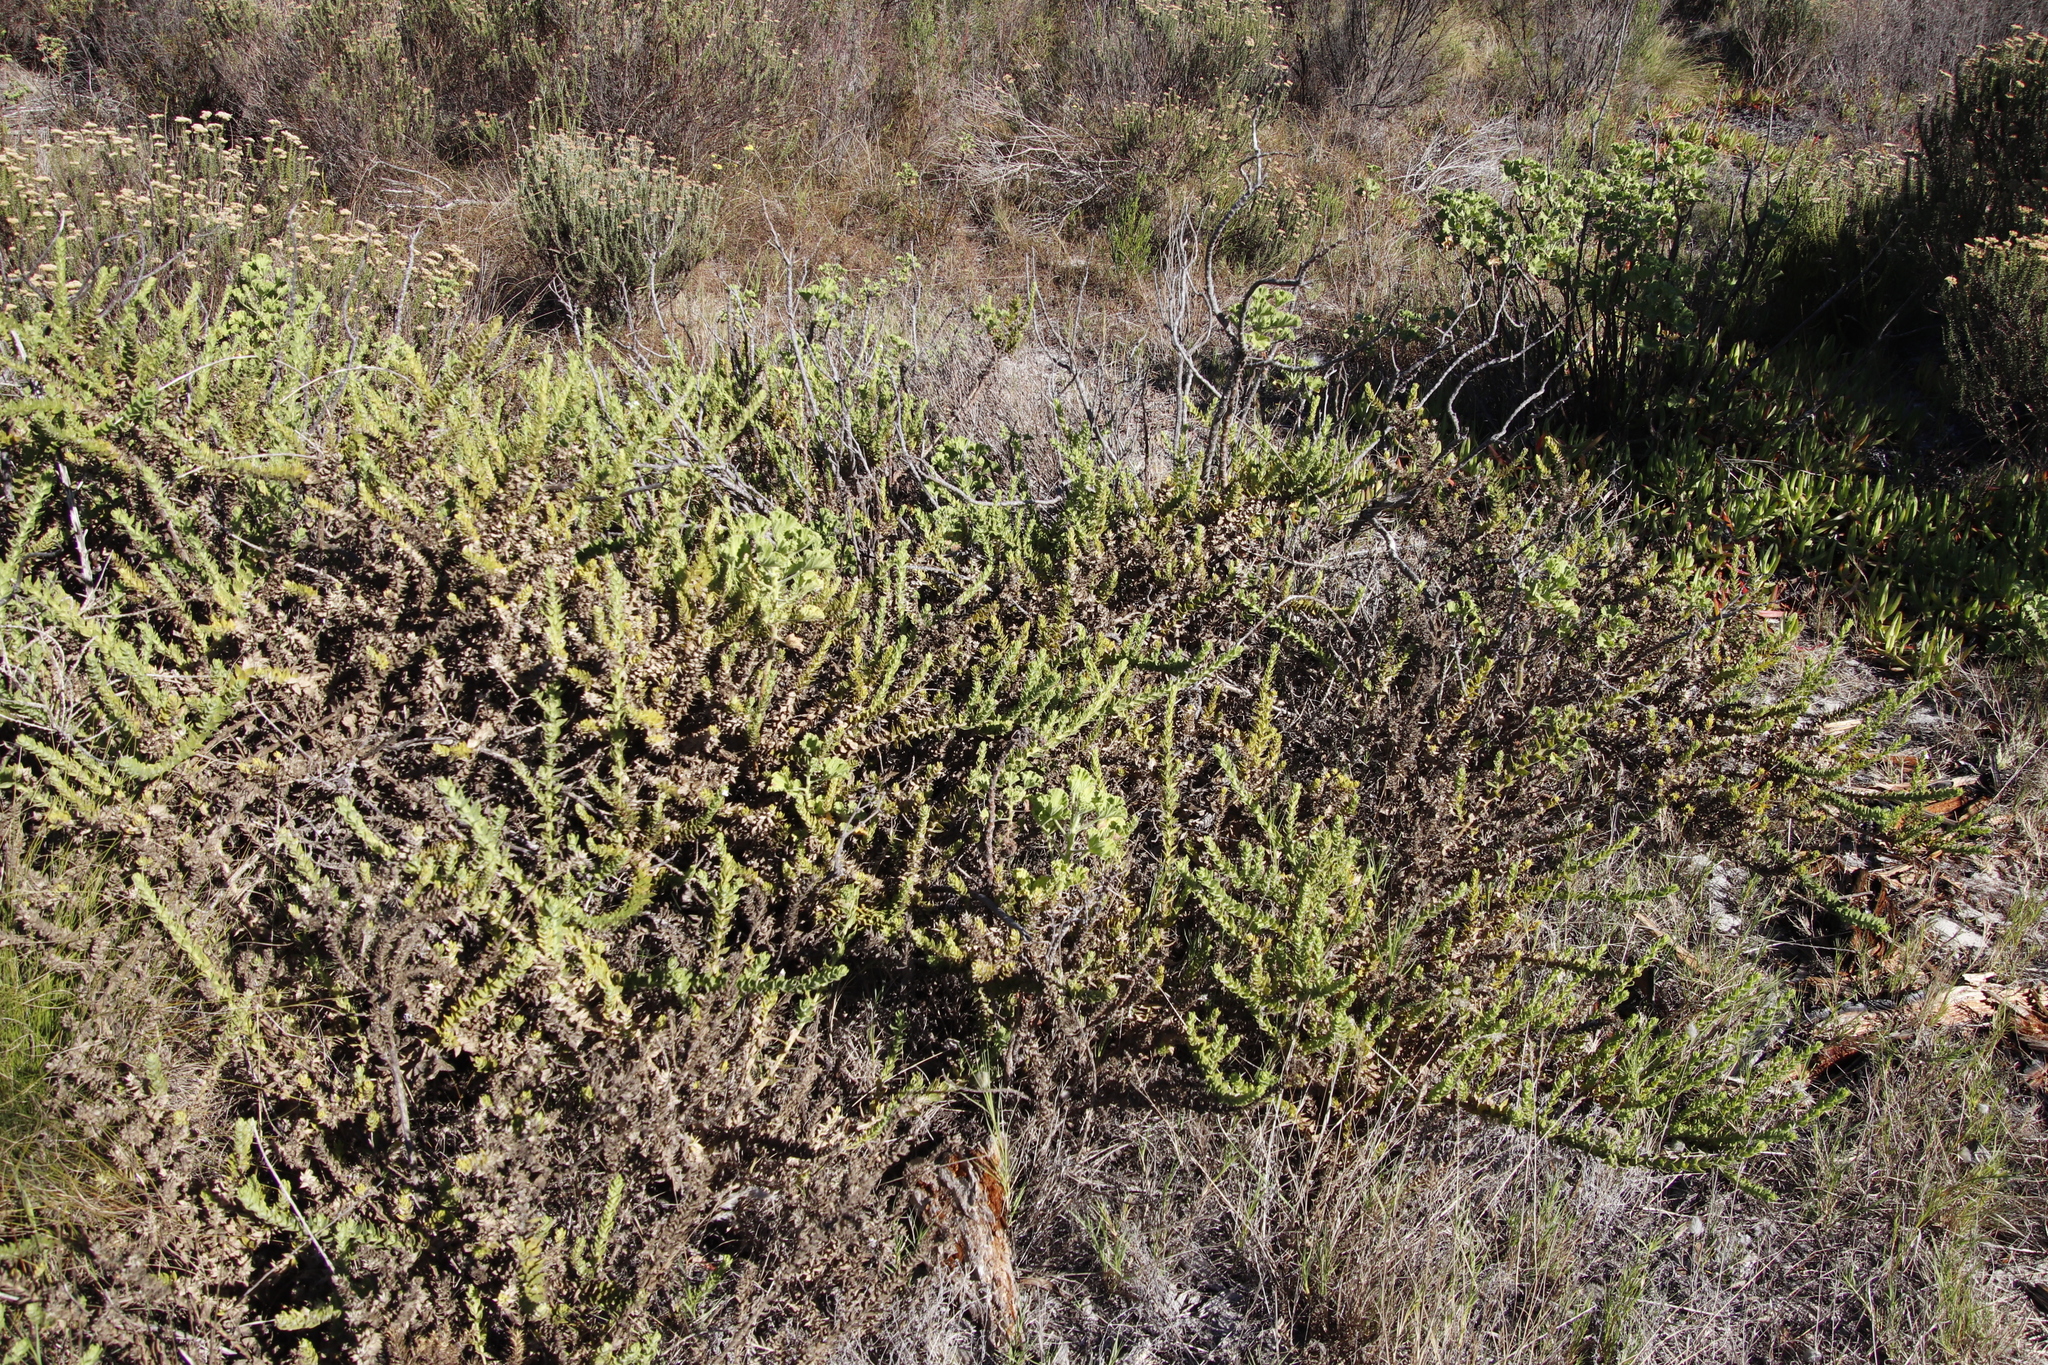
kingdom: Plantae
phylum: Tracheophyta
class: Magnoliopsida
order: Lamiales
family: Scrophulariaceae
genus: Oftia
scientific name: Oftia africana
